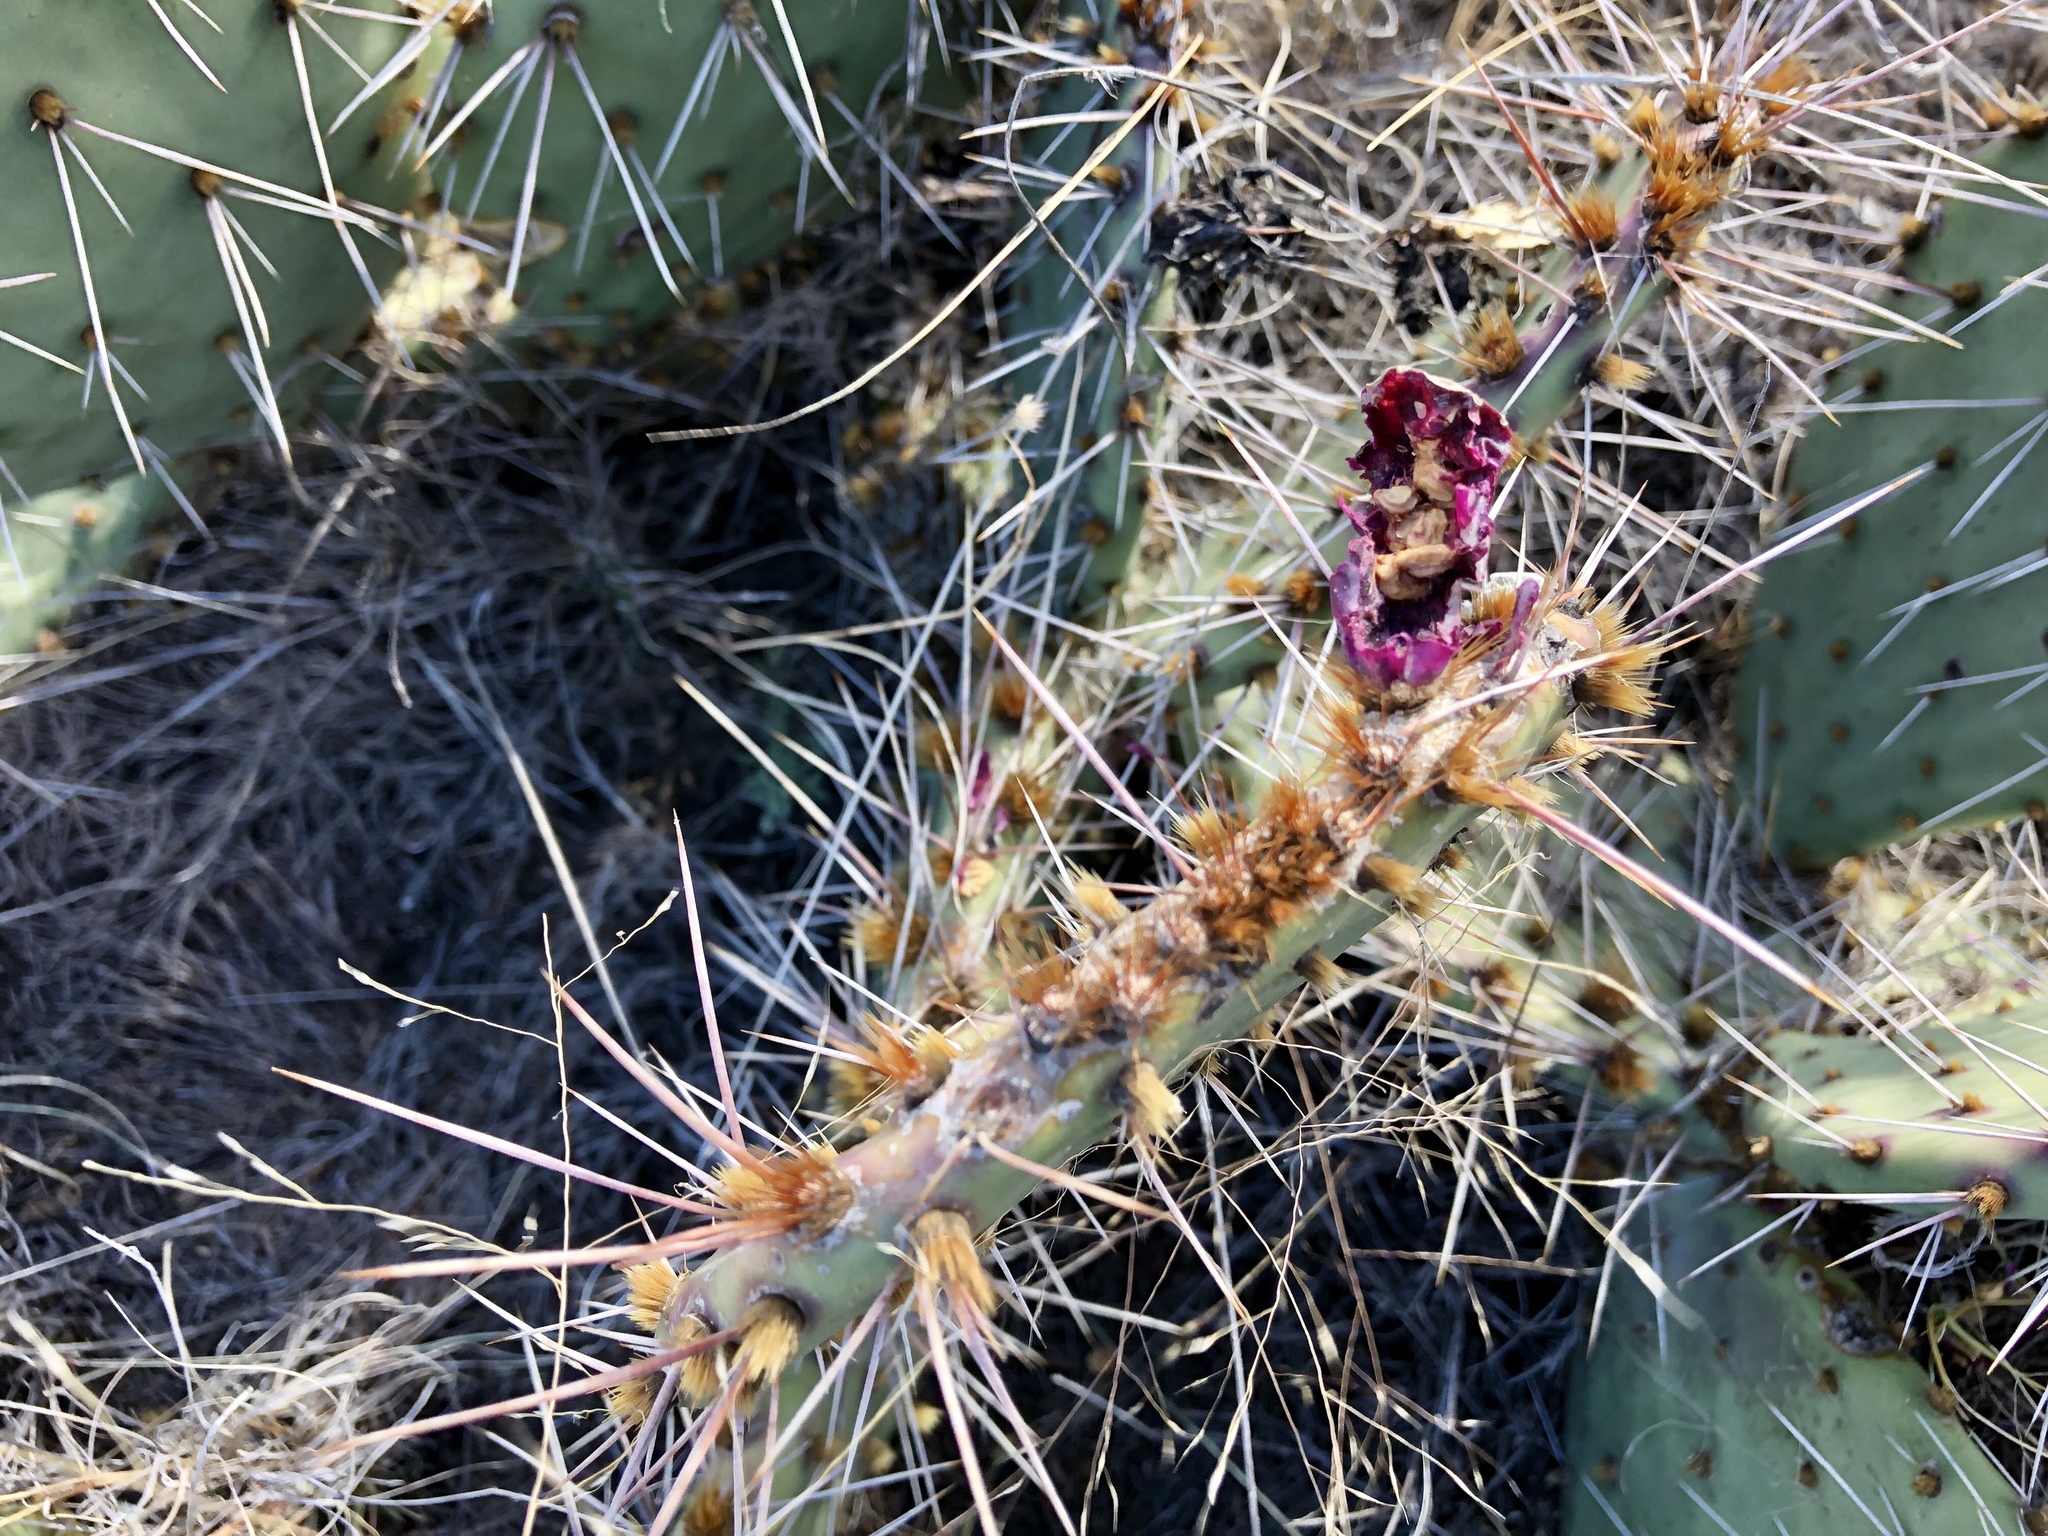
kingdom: Plantae
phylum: Tracheophyta
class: Magnoliopsida
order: Caryophyllales
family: Cactaceae
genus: Opuntia
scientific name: Opuntia macrorhiza
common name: Grassland pricklypear
